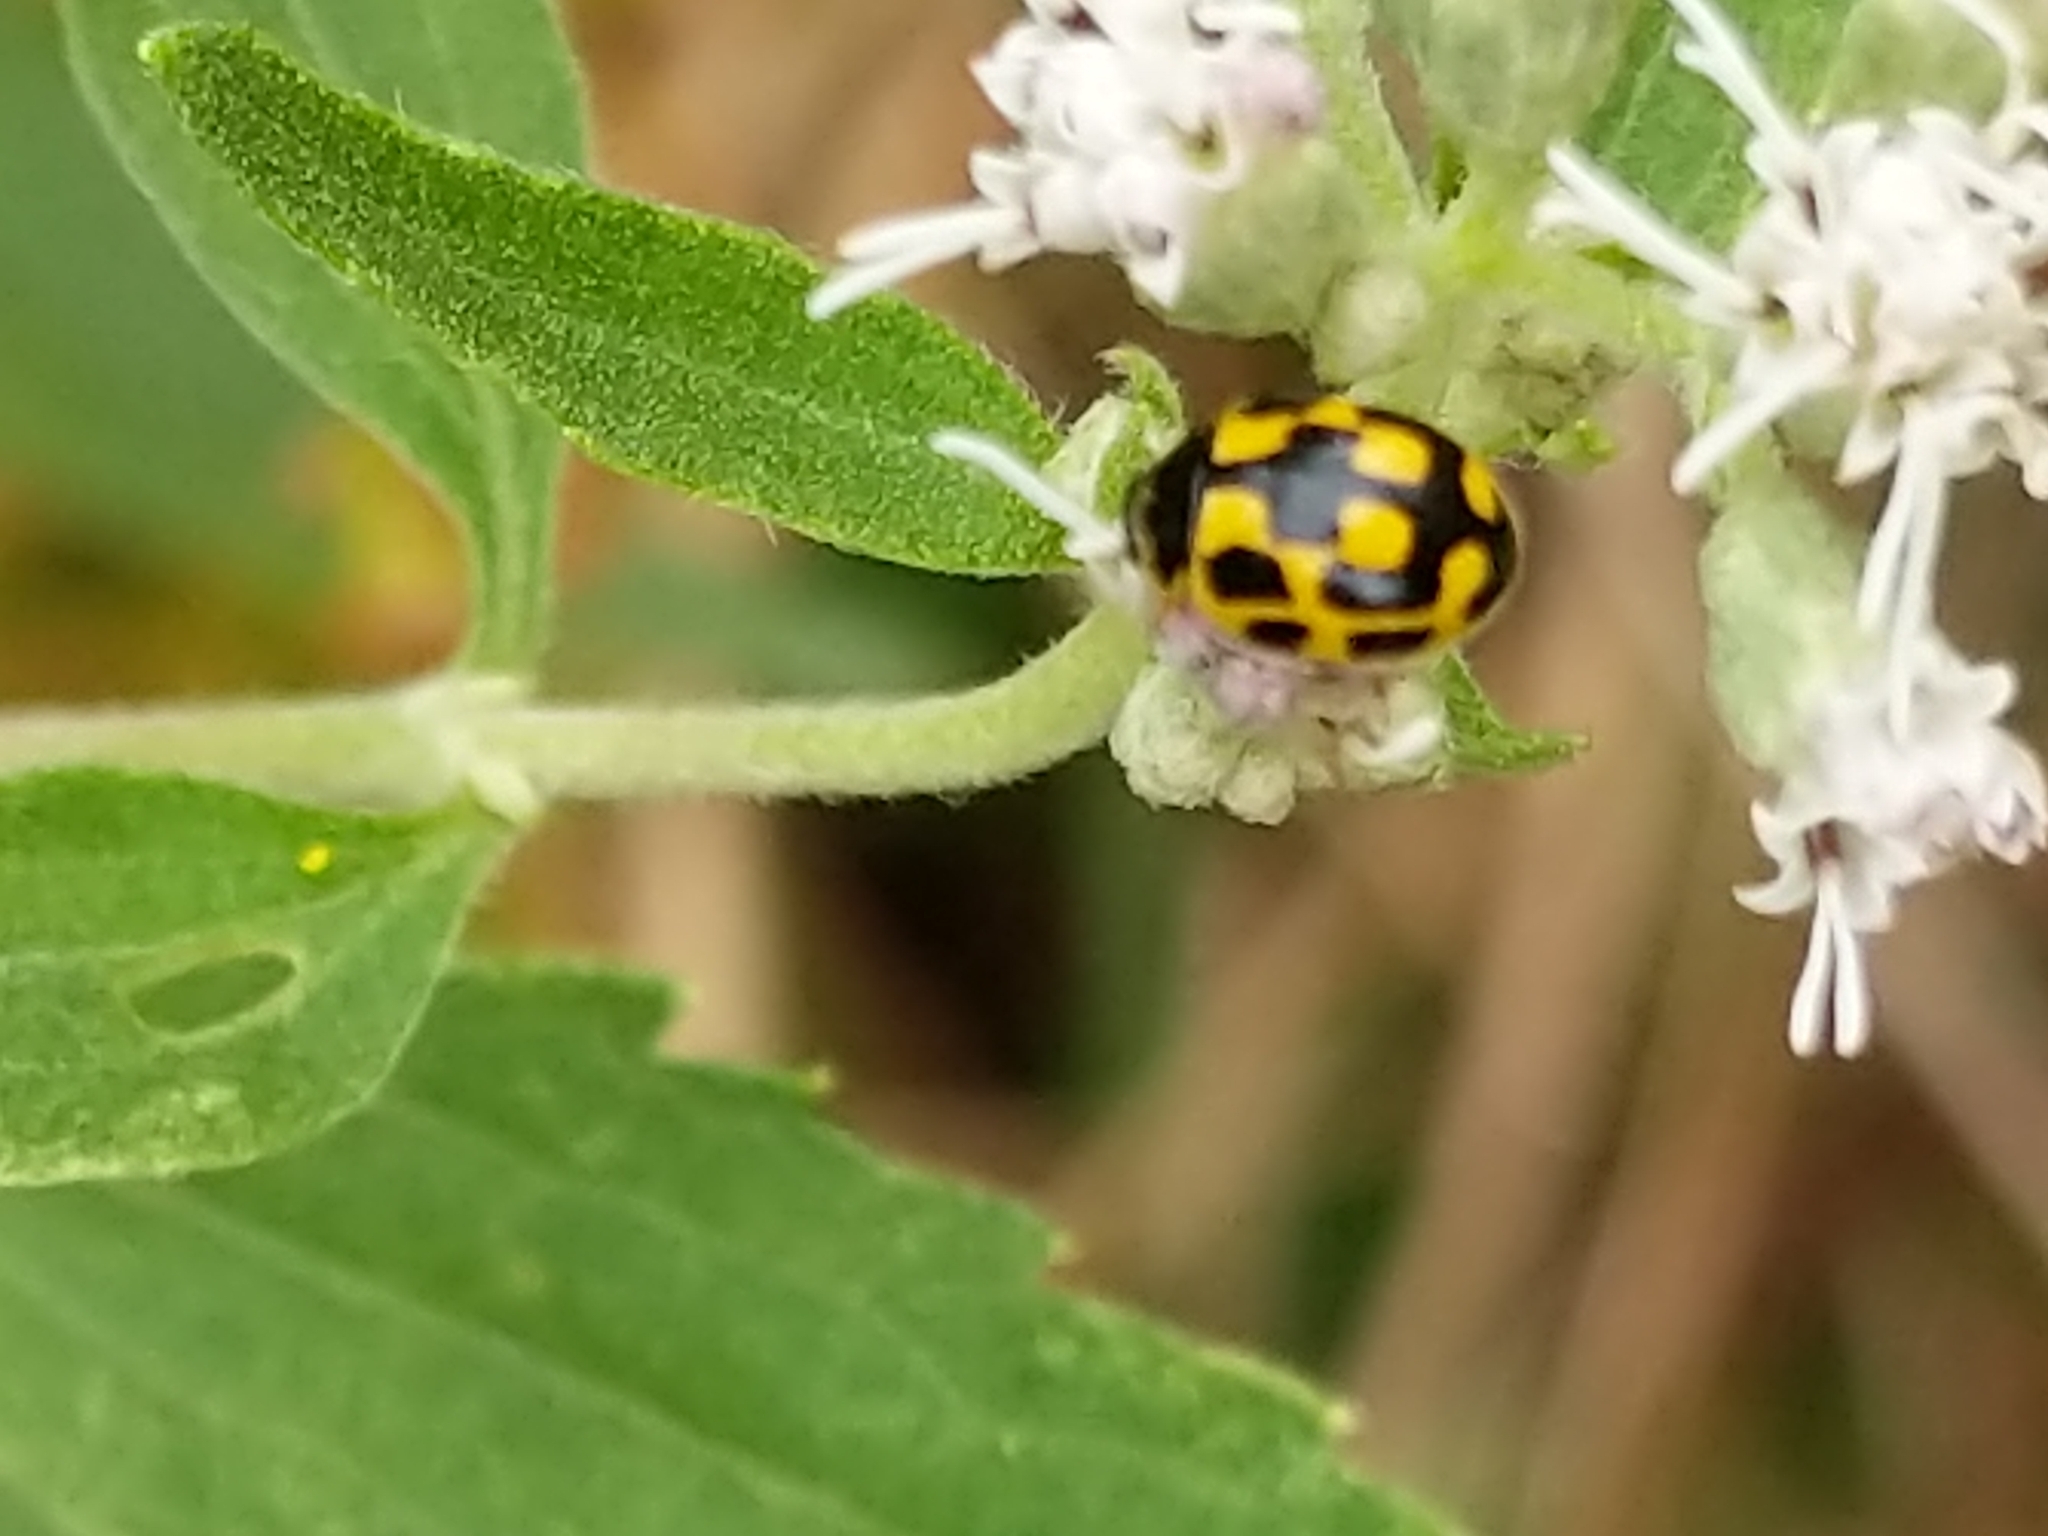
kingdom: Animalia
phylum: Arthropoda
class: Insecta
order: Coleoptera
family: Coccinellidae
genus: Propylaea
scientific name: Propylaea quatuordecimpunctata
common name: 14-spotted ladybird beetle
